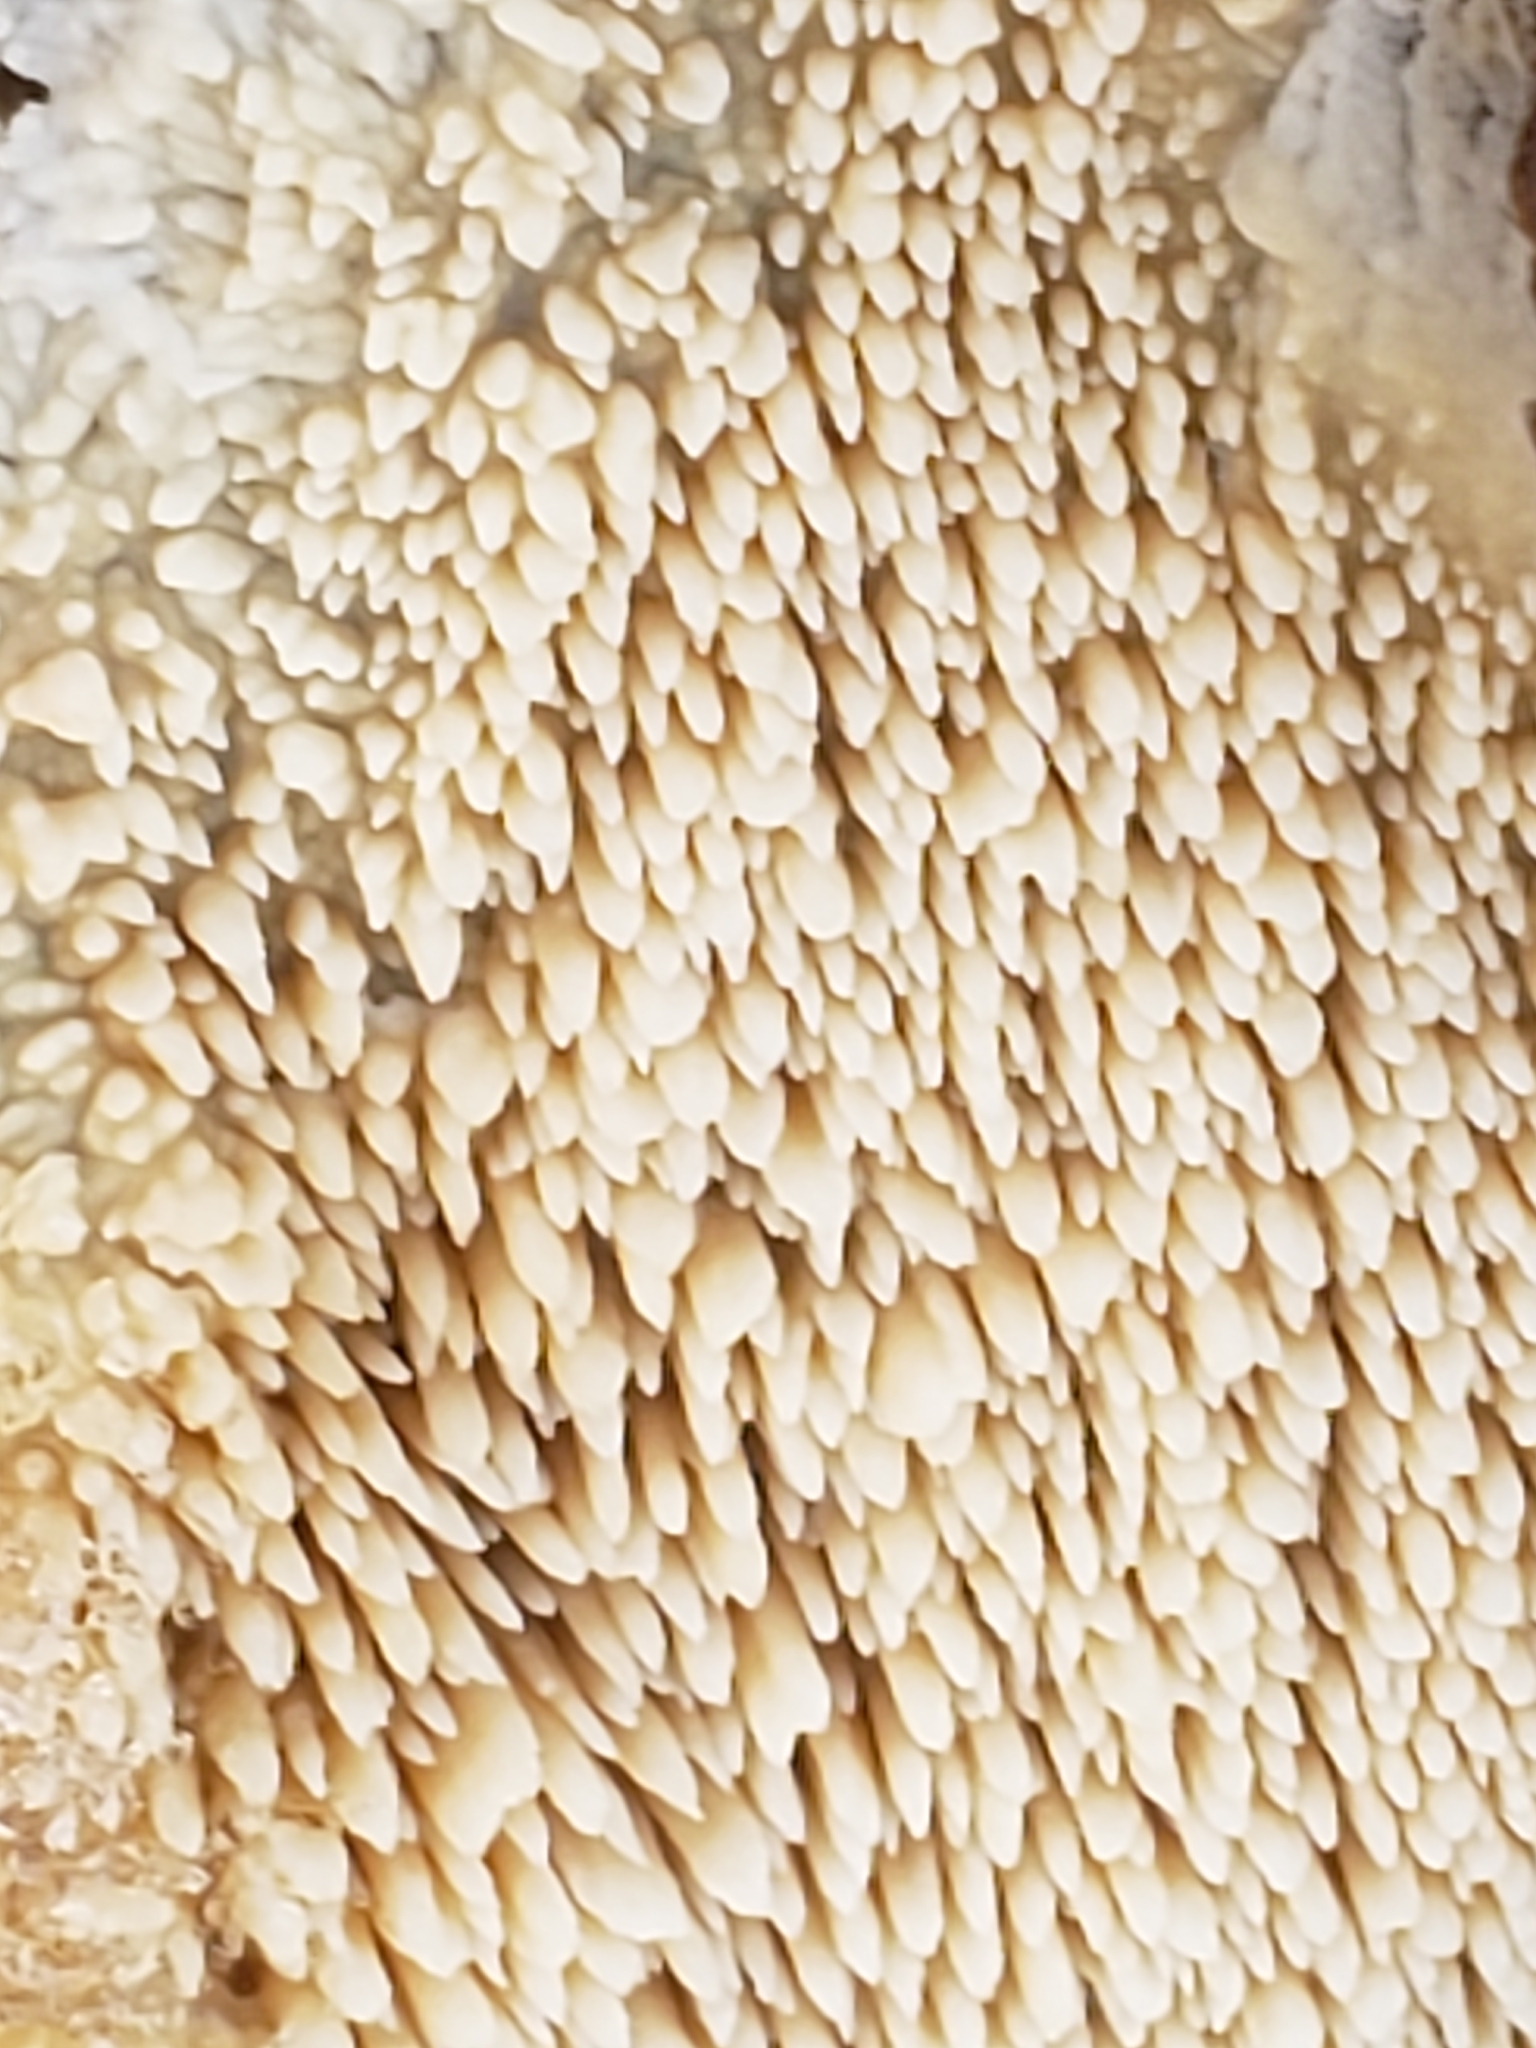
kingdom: Fungi
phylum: Basidiomycota
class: Agaricomycetes
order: Agaricales
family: Radulomycetaceae
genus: Radulomyces
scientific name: Radulomyces copelandii
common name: Asian beauty
